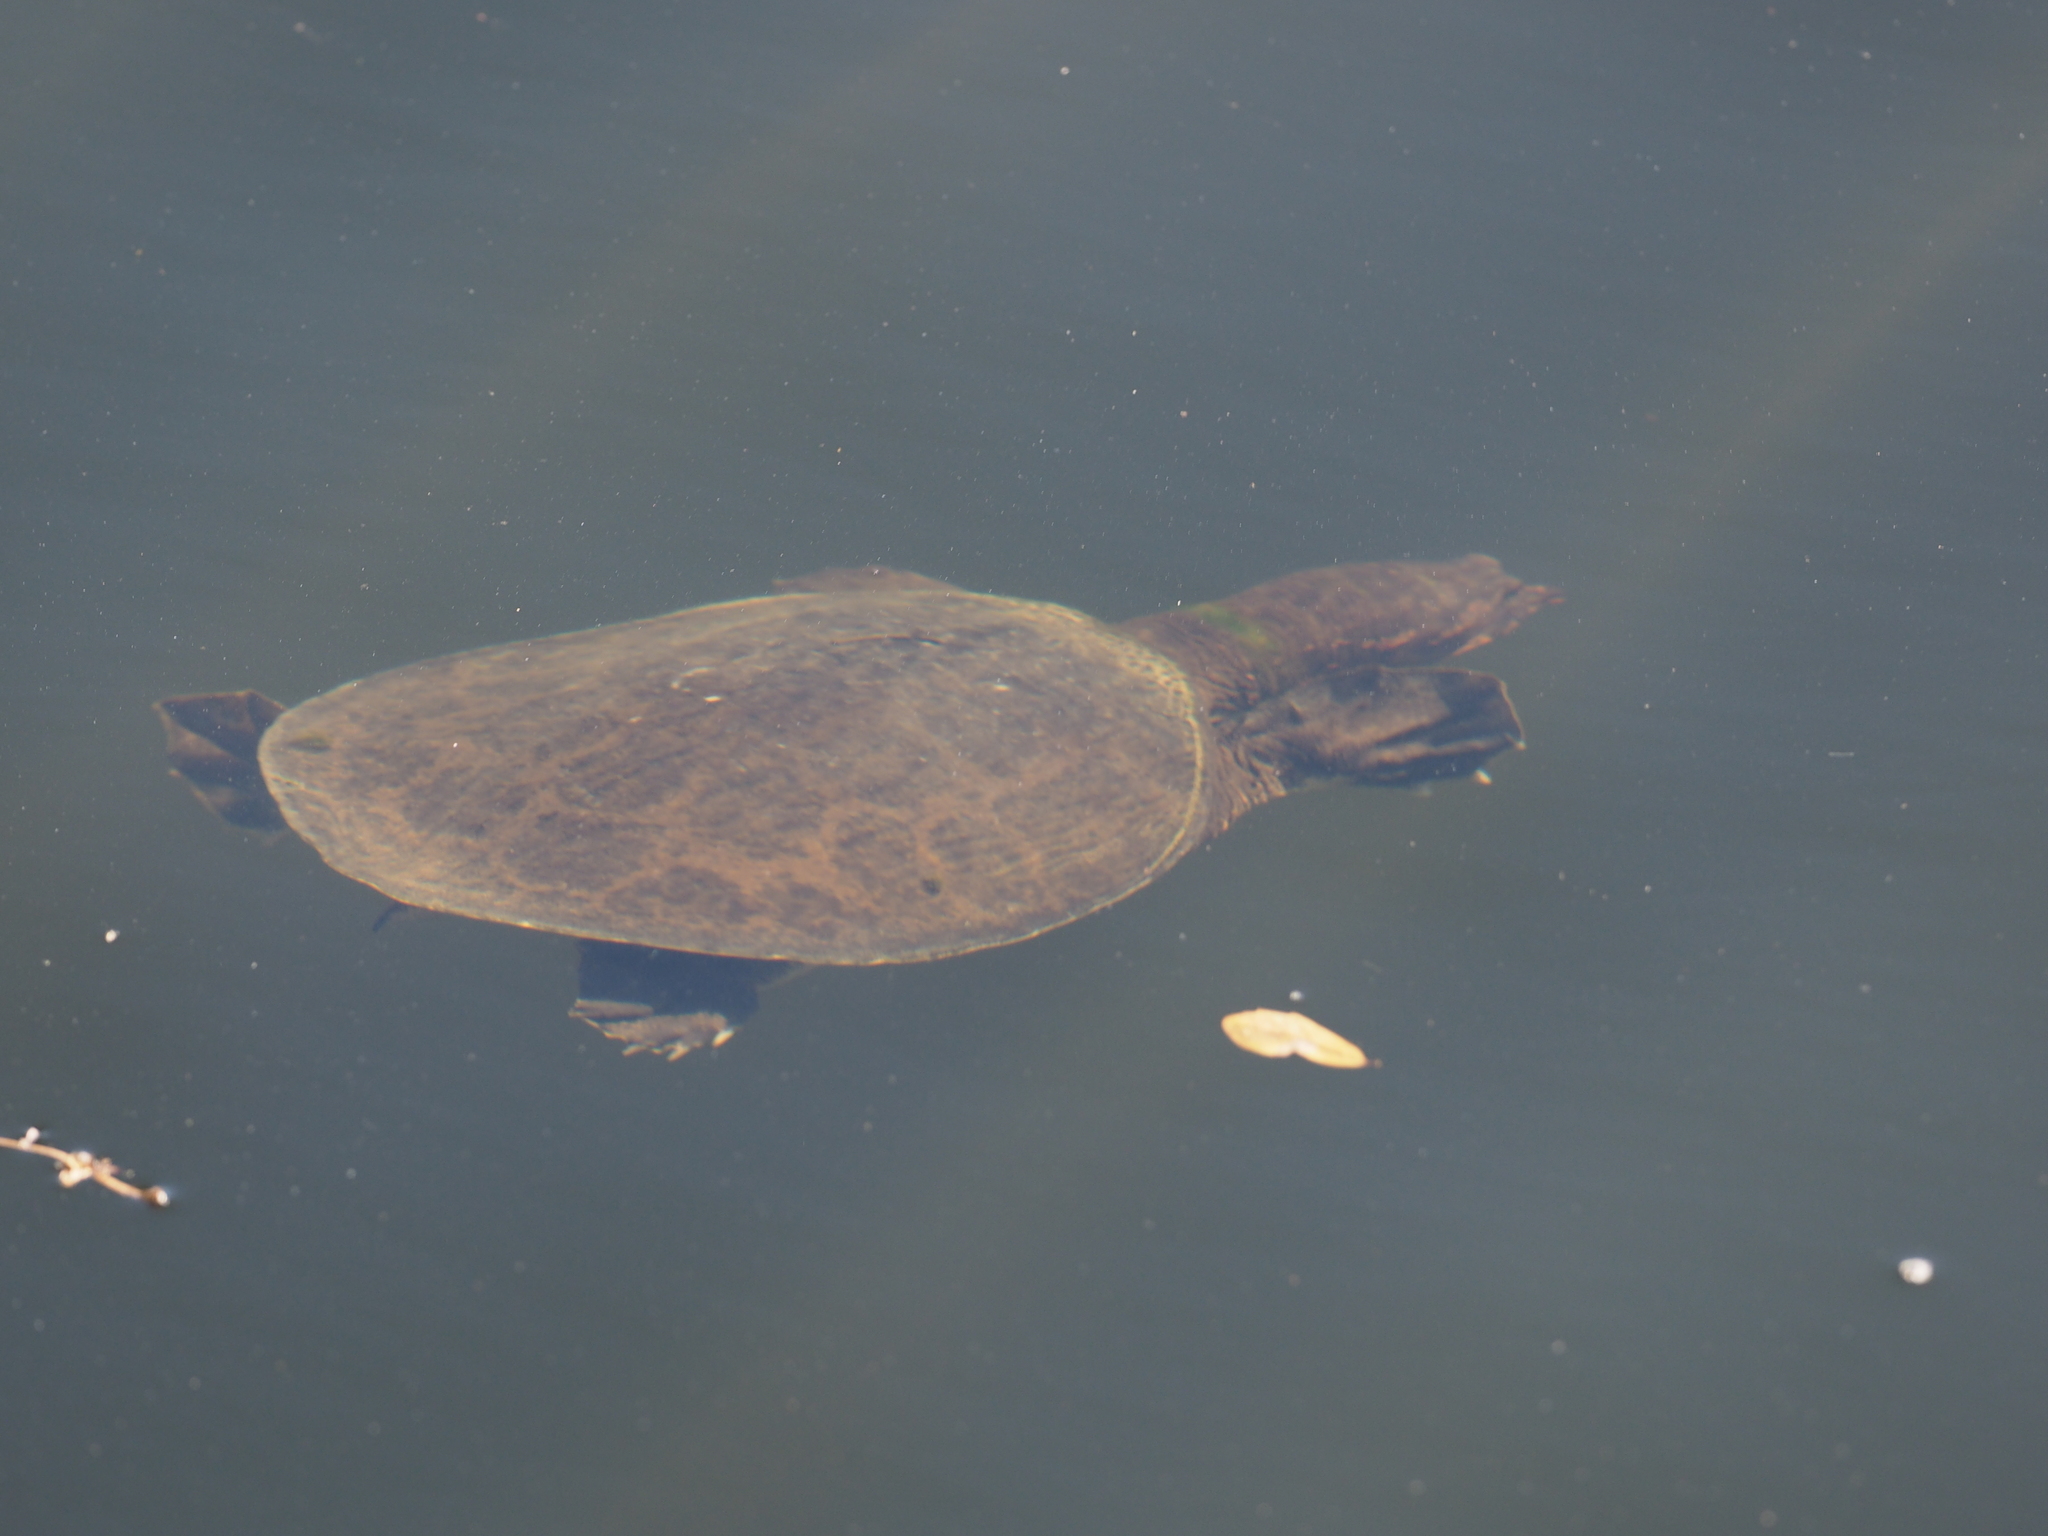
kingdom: Animalia
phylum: Chordata
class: Testudines
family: Trionychidae
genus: Apalone
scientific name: Apalone ferox
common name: Florida softshell turtle
